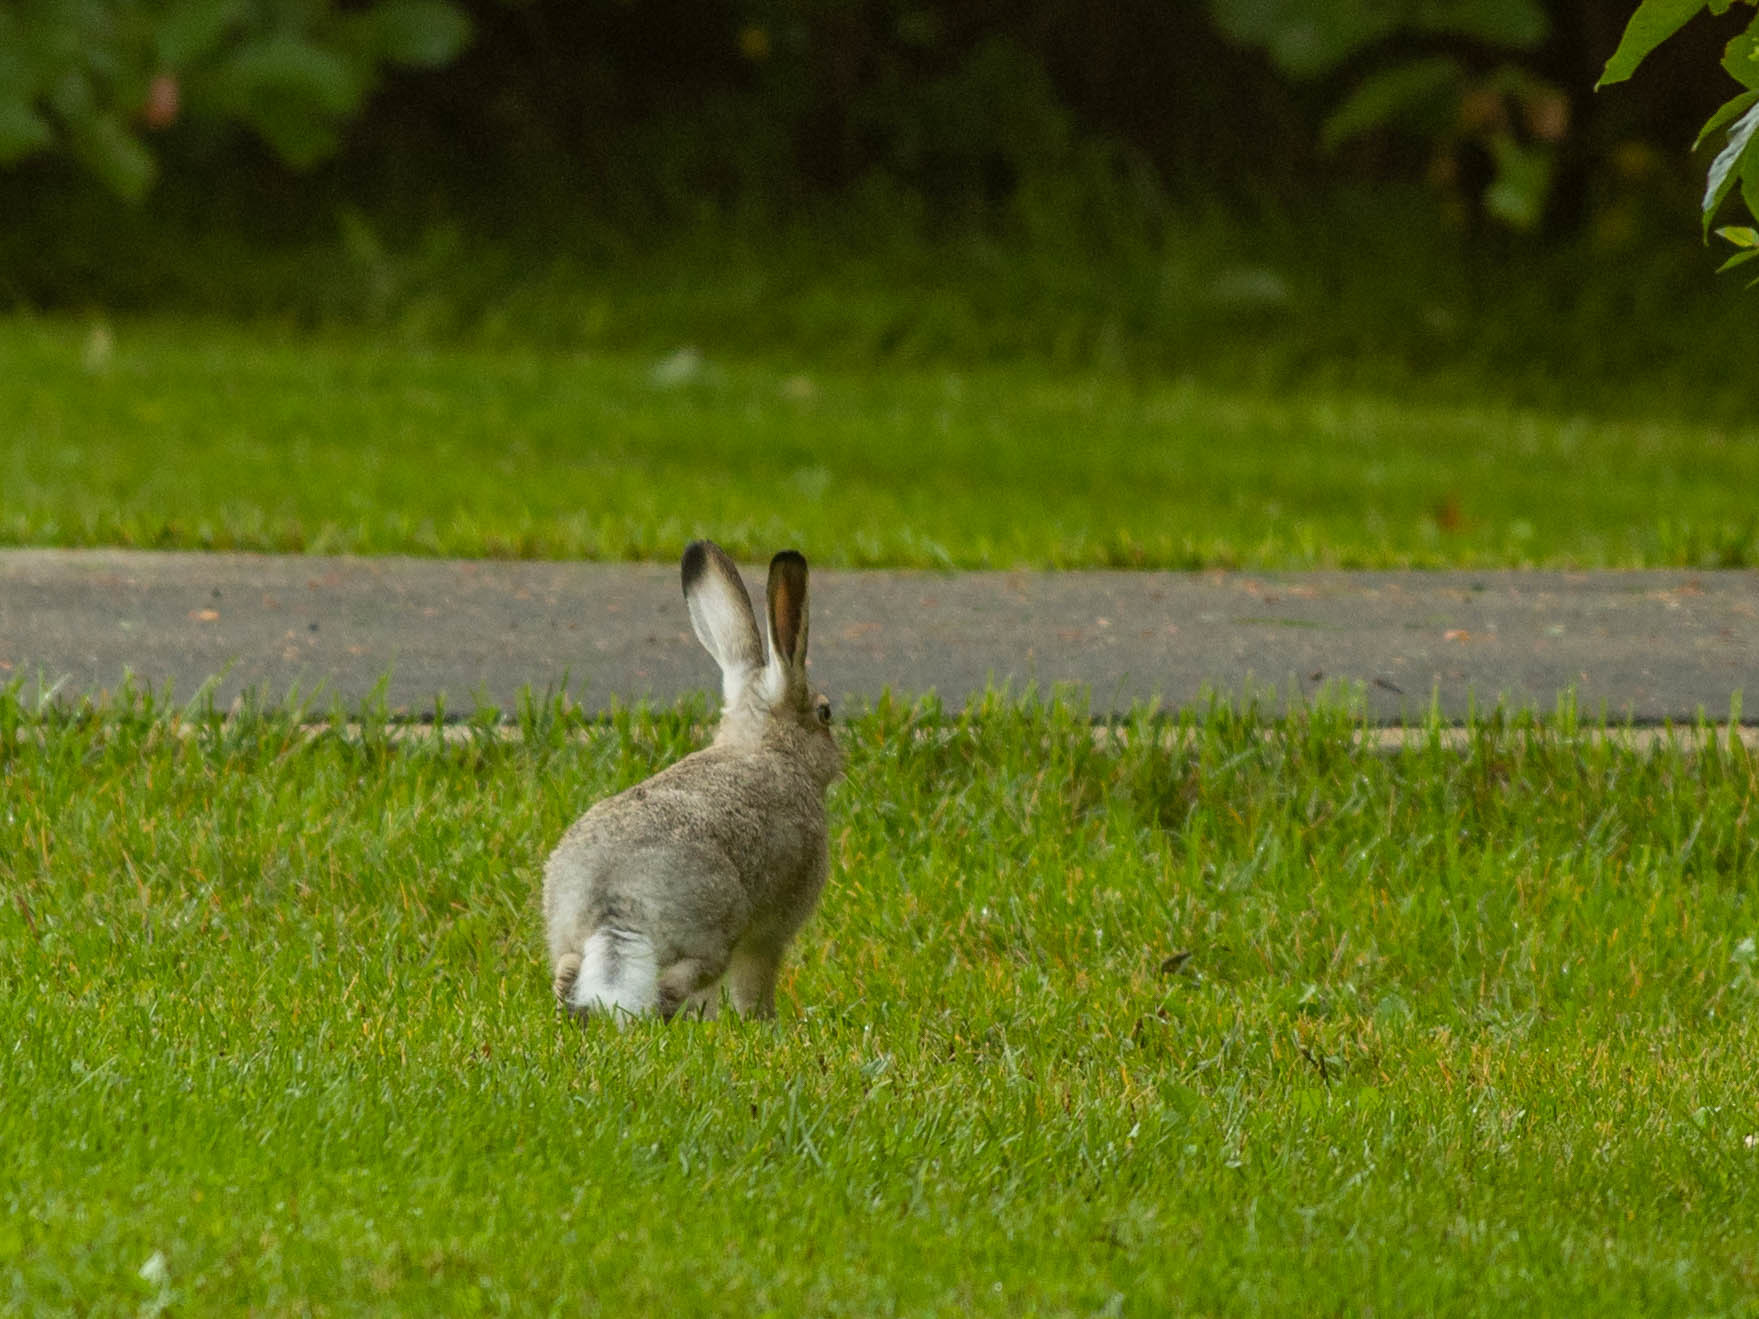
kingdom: Animalia
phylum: Chordata
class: Mammalia
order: Lagomorpha
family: Leporidae
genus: Lepus
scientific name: Lepus townsendii
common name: White-tailed jackrabbit
